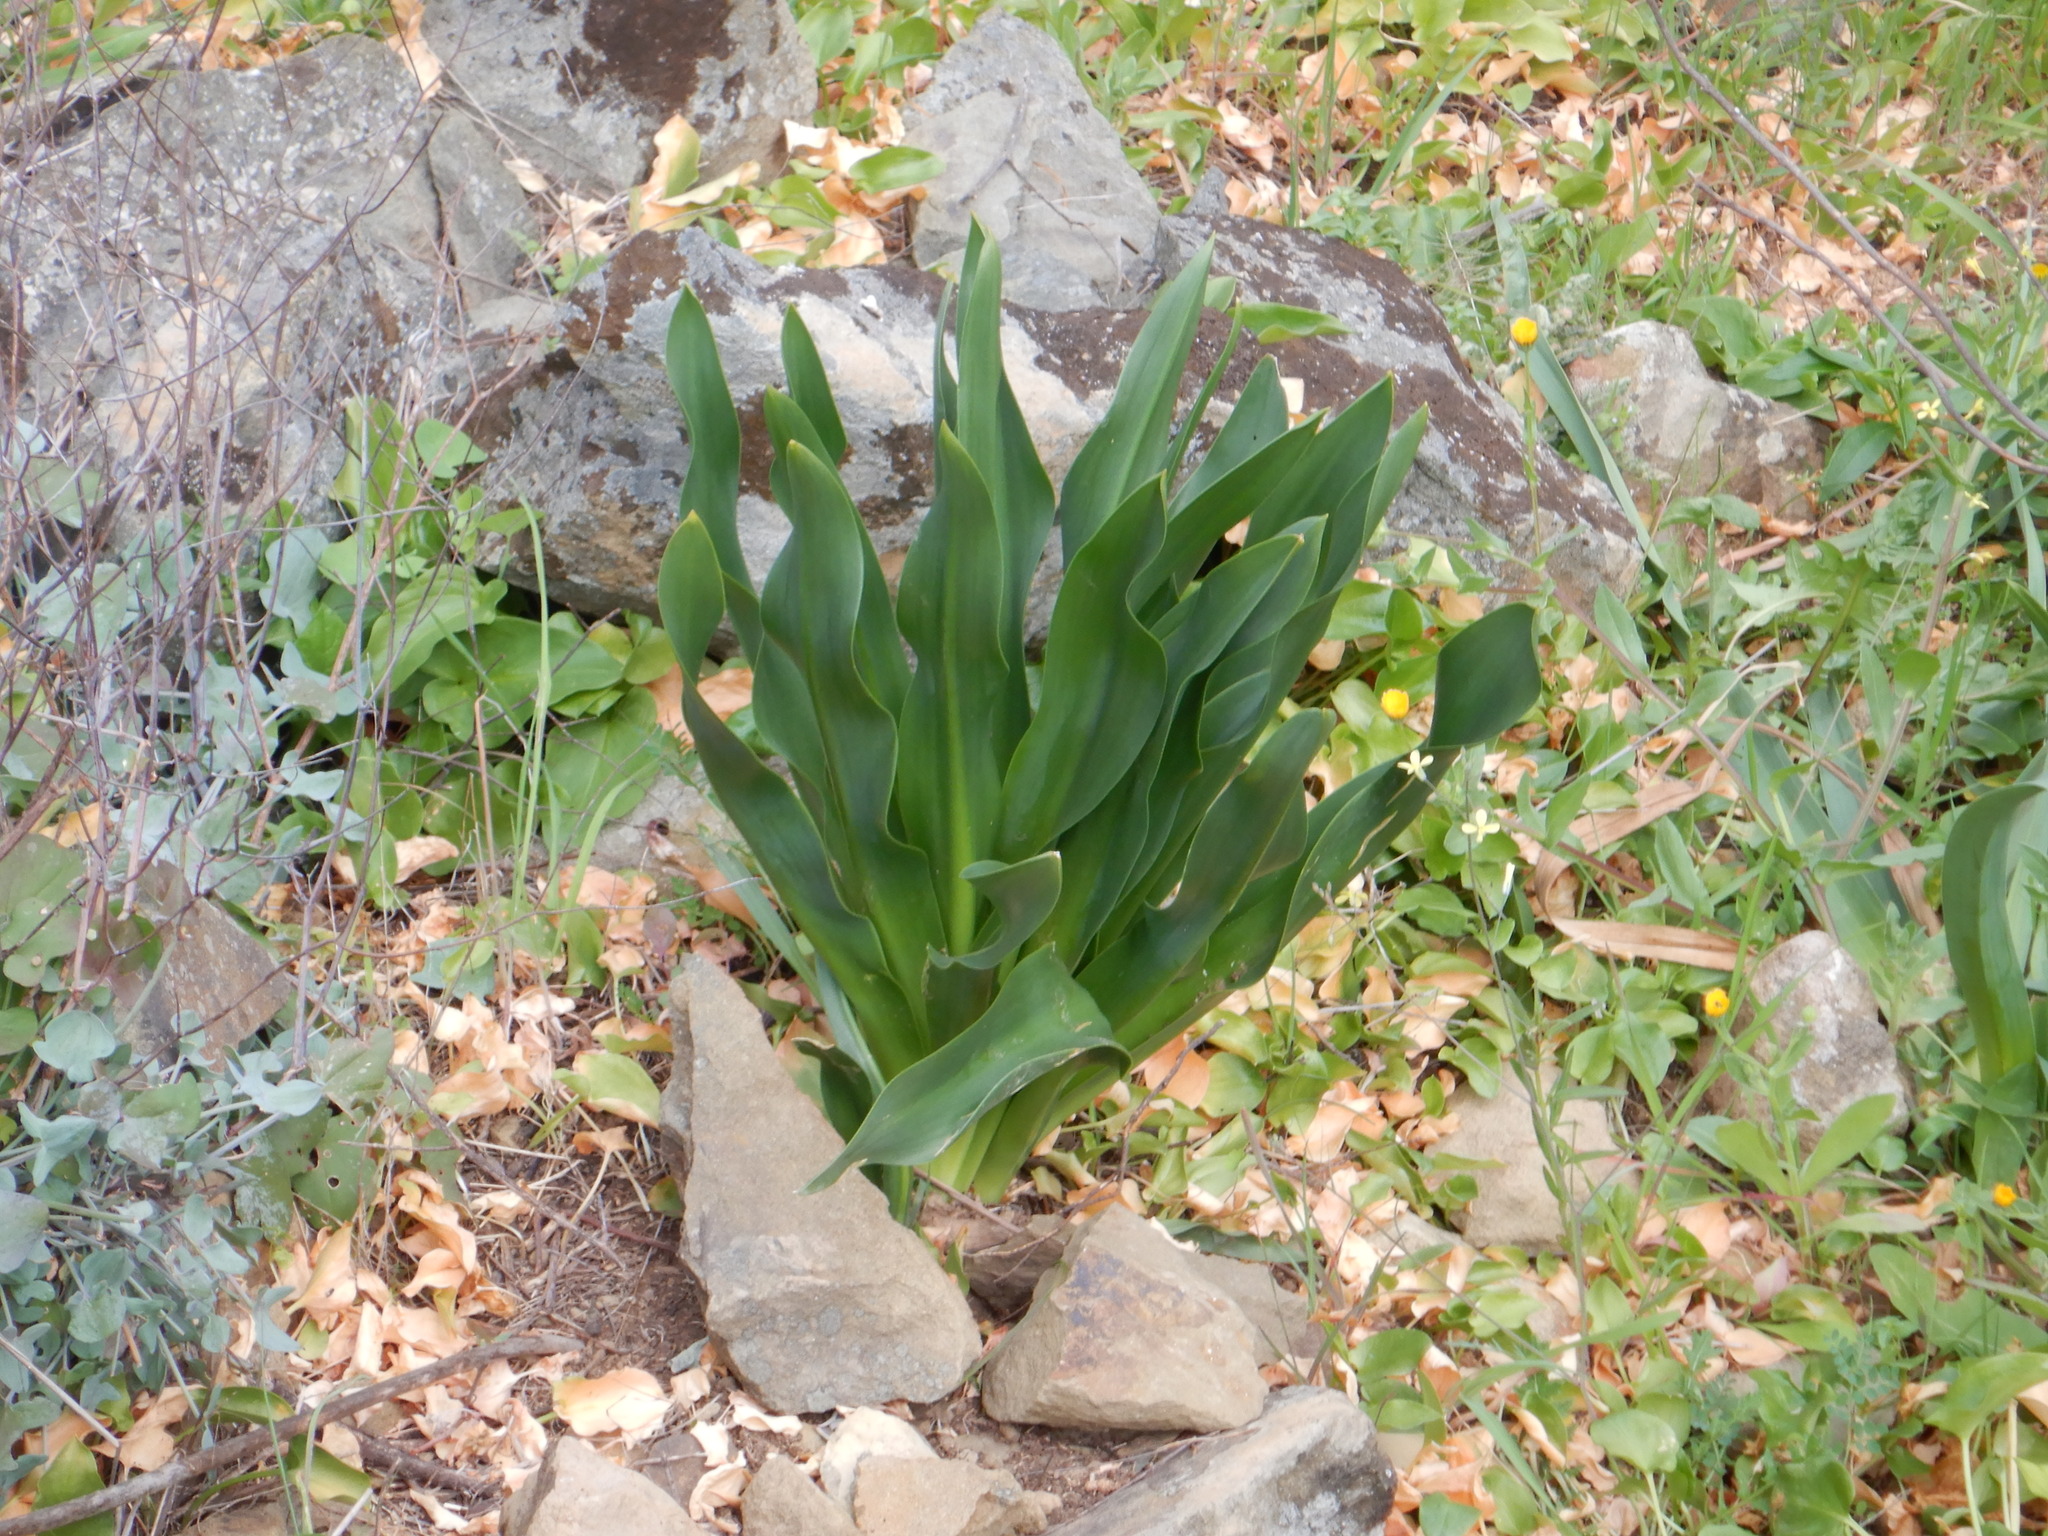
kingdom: Plantae
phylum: Tracheophyta
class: Liliopsida
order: Asparagales
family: Asparagaceae
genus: Drimia
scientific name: Drimia maritima
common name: Maritime squill
